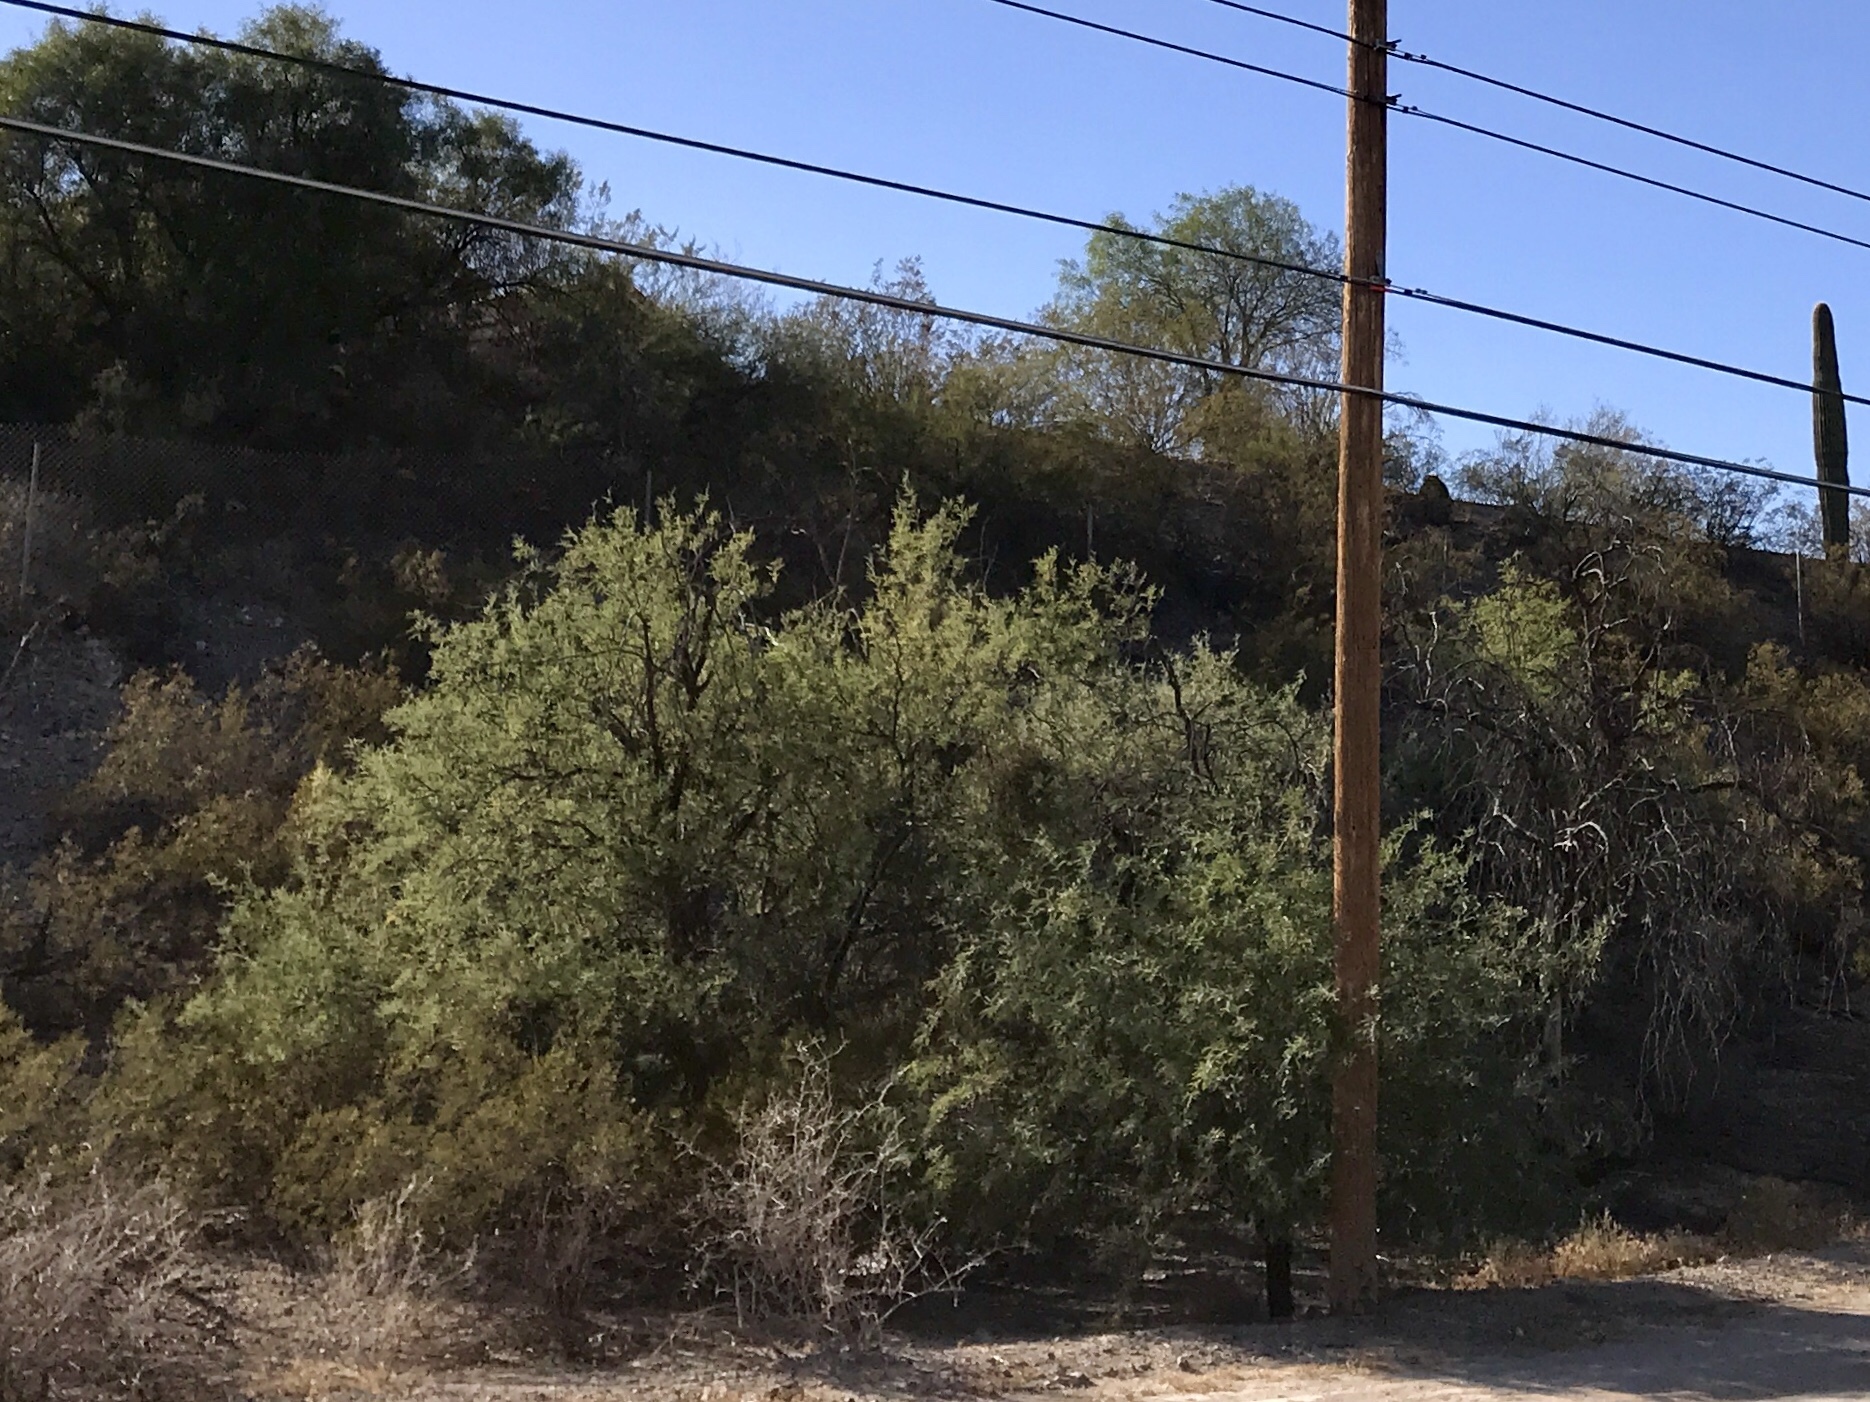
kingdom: Plantae
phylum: Tracheophyta
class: Magnoliopsida
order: Fabales
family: Fabaceae
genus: Prosopis
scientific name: Prosopis velutina
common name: Velvet mesquite
